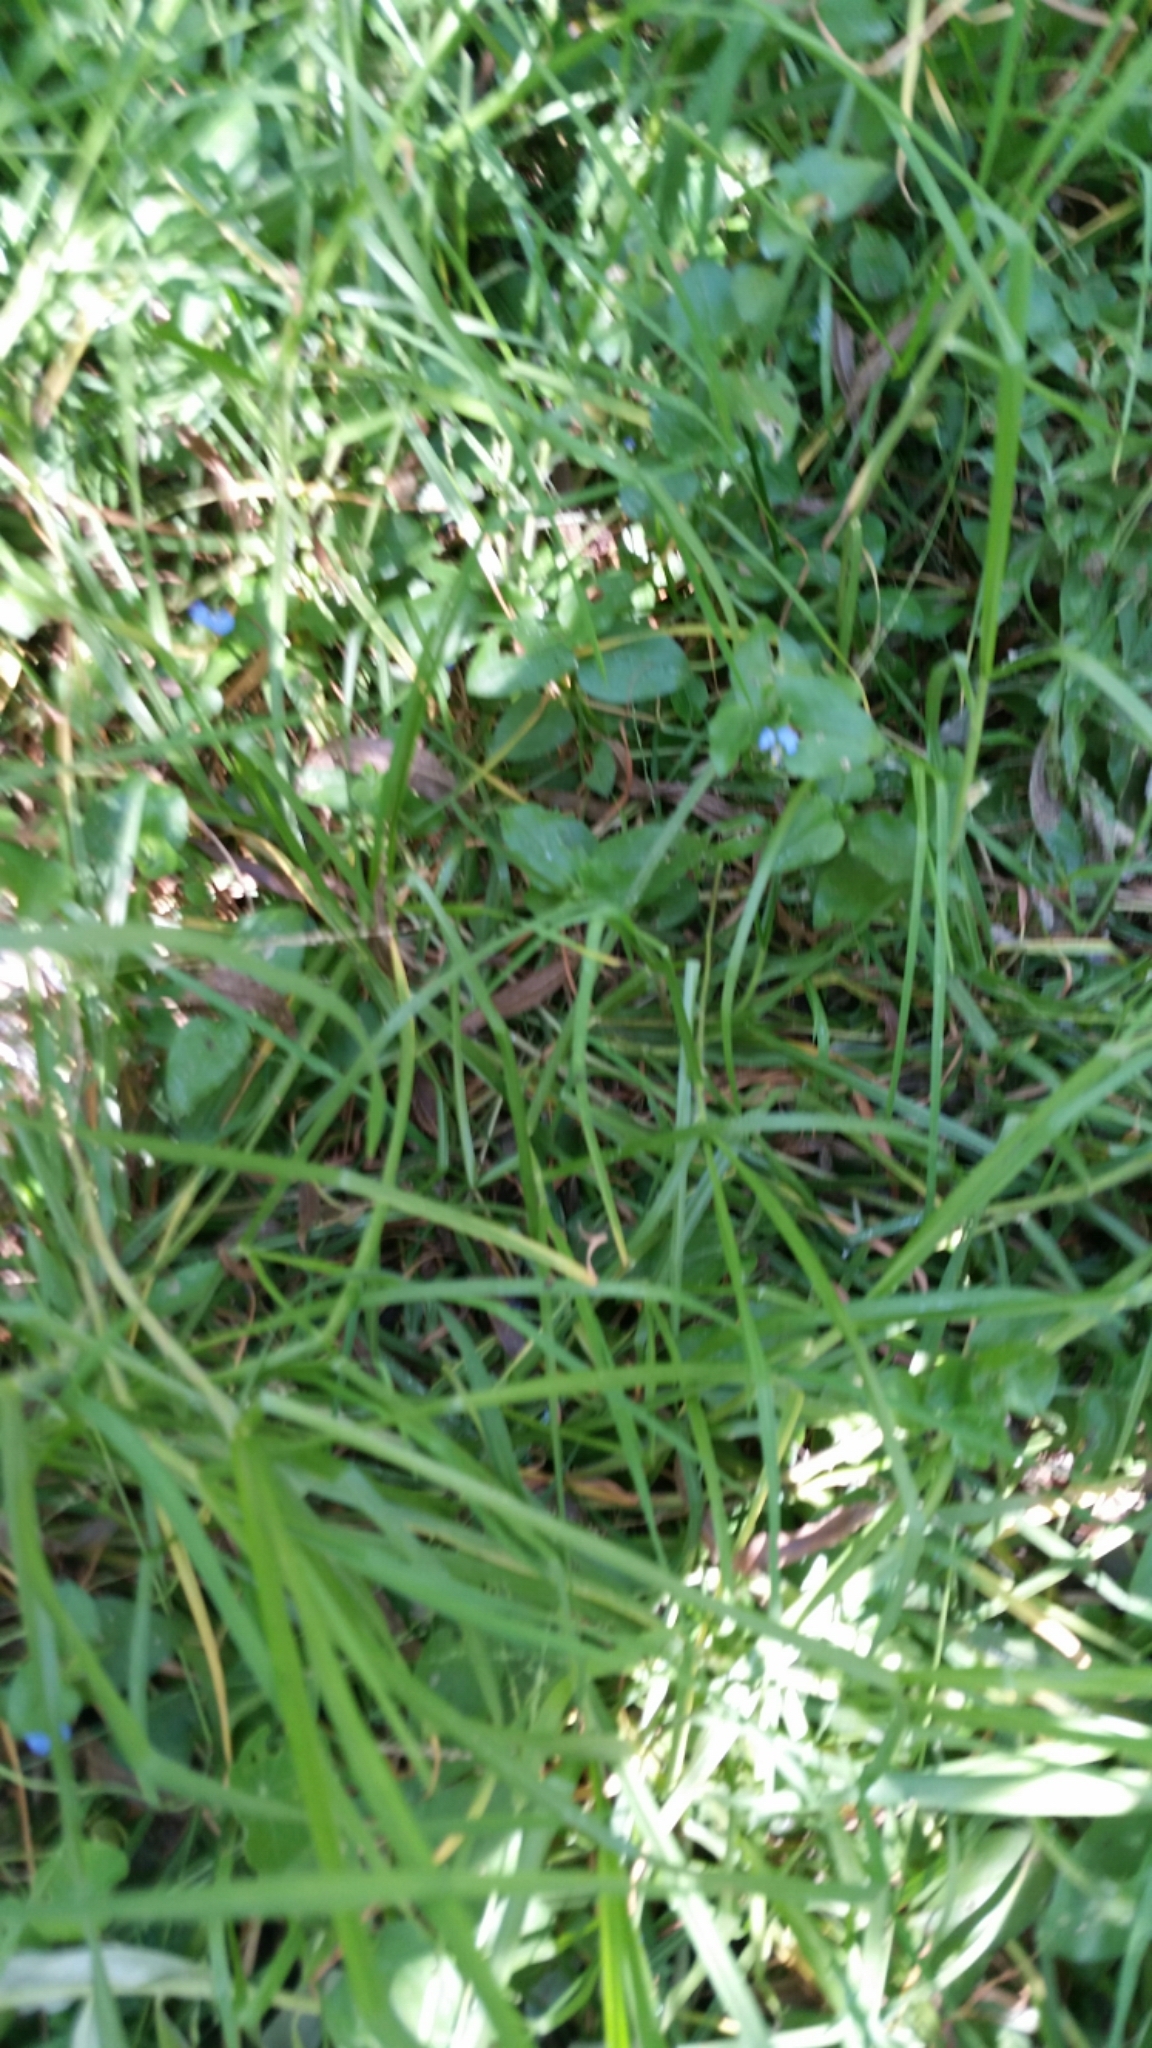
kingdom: Plantae
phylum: Tracheophyta
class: Liliopsida
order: Commelinales
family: Commelinaceae
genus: Commelina
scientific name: Commelina benghalensis
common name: Jio
